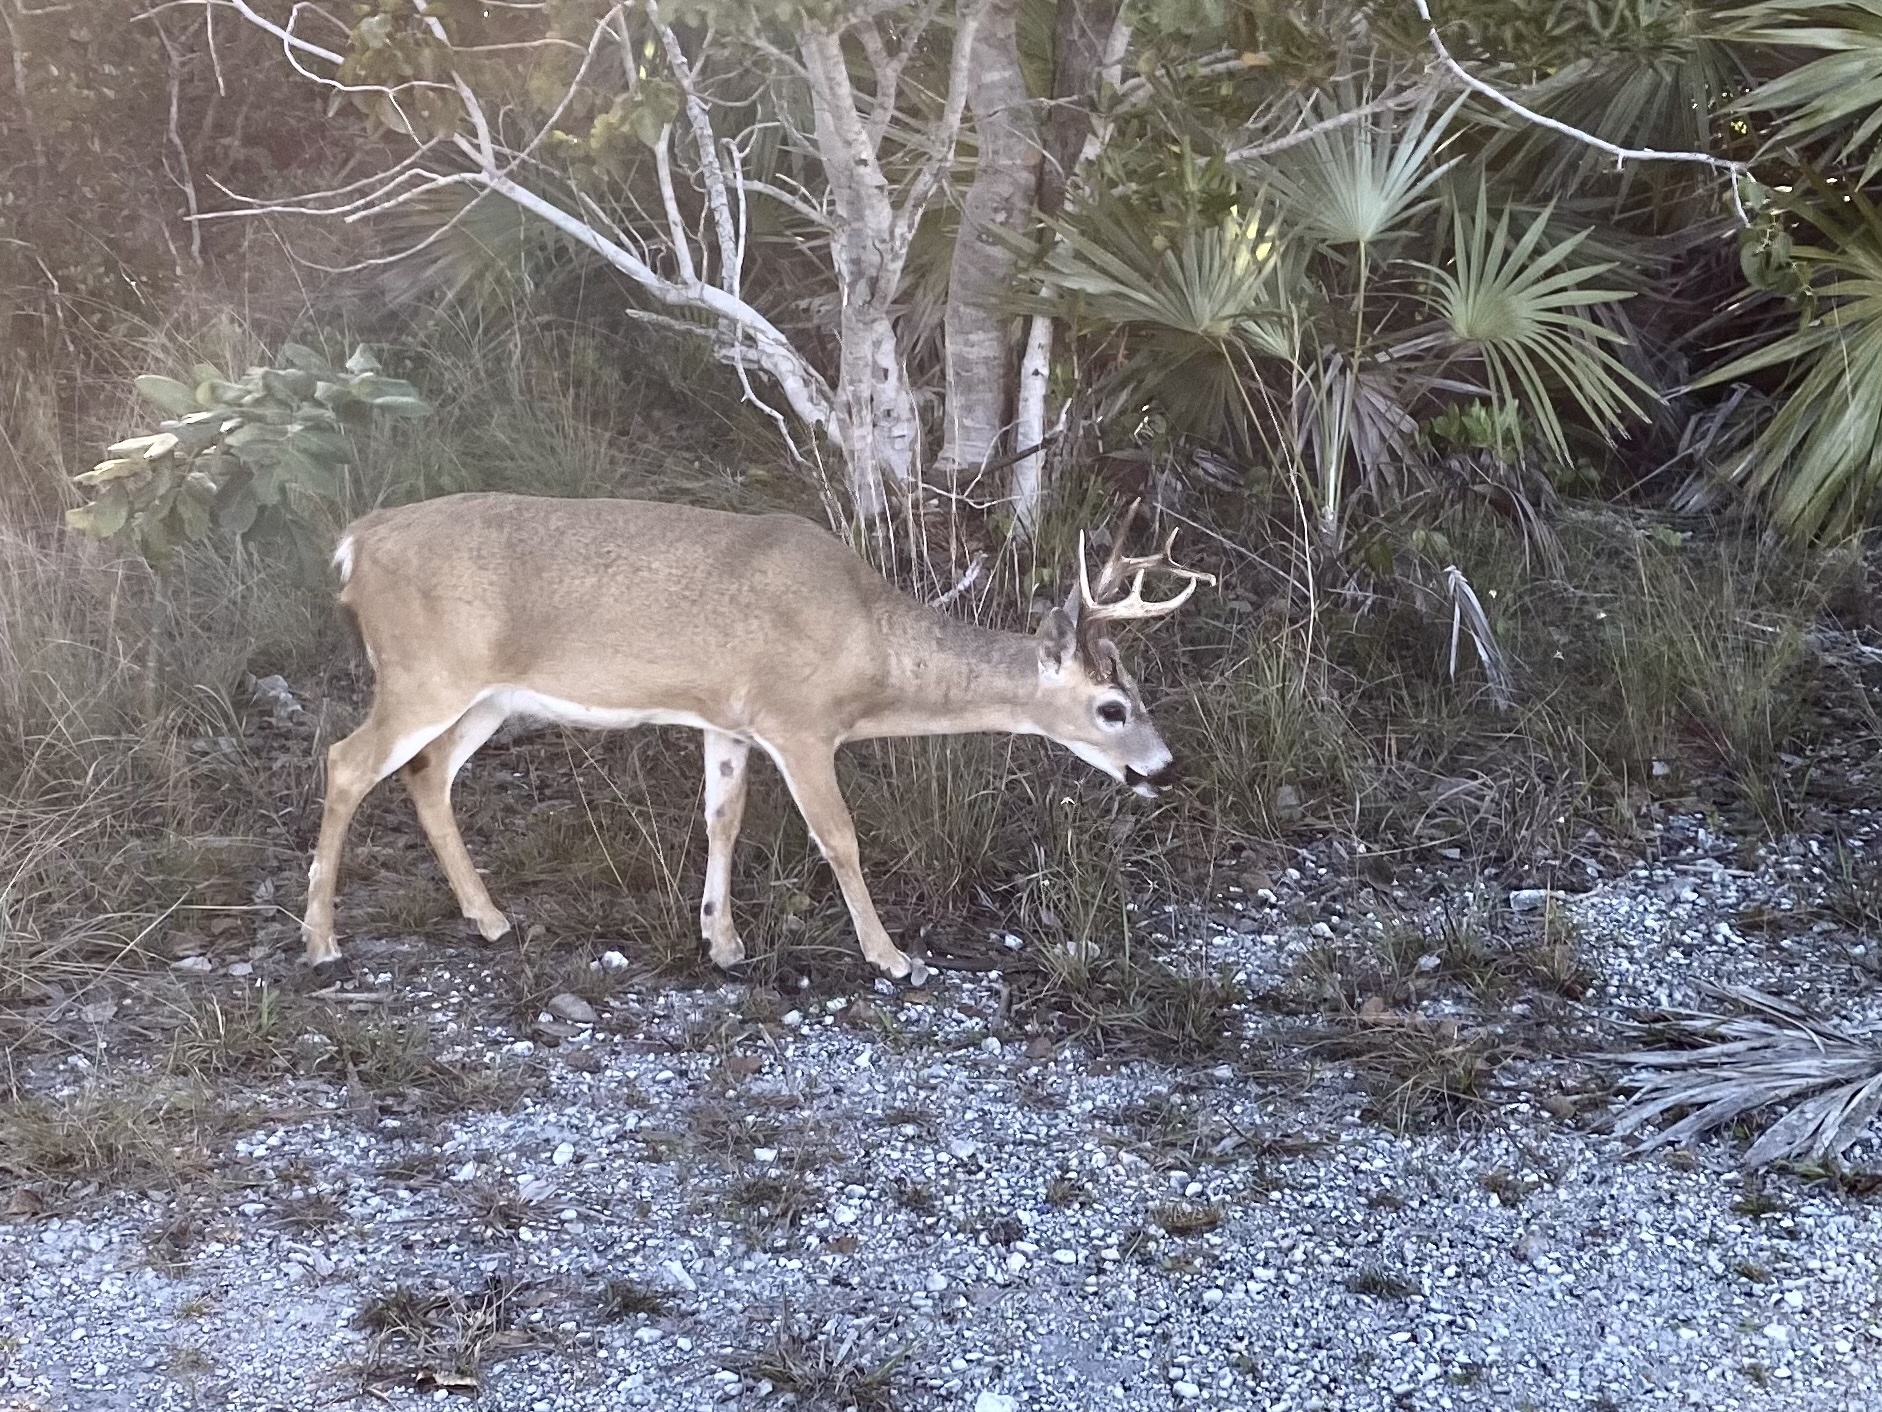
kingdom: Animalia
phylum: Chordata
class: Mammalia
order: Artiodactyla
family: Cervidae
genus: Odocoileus
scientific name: Odocoileus virginianus
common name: White-tailed deer
